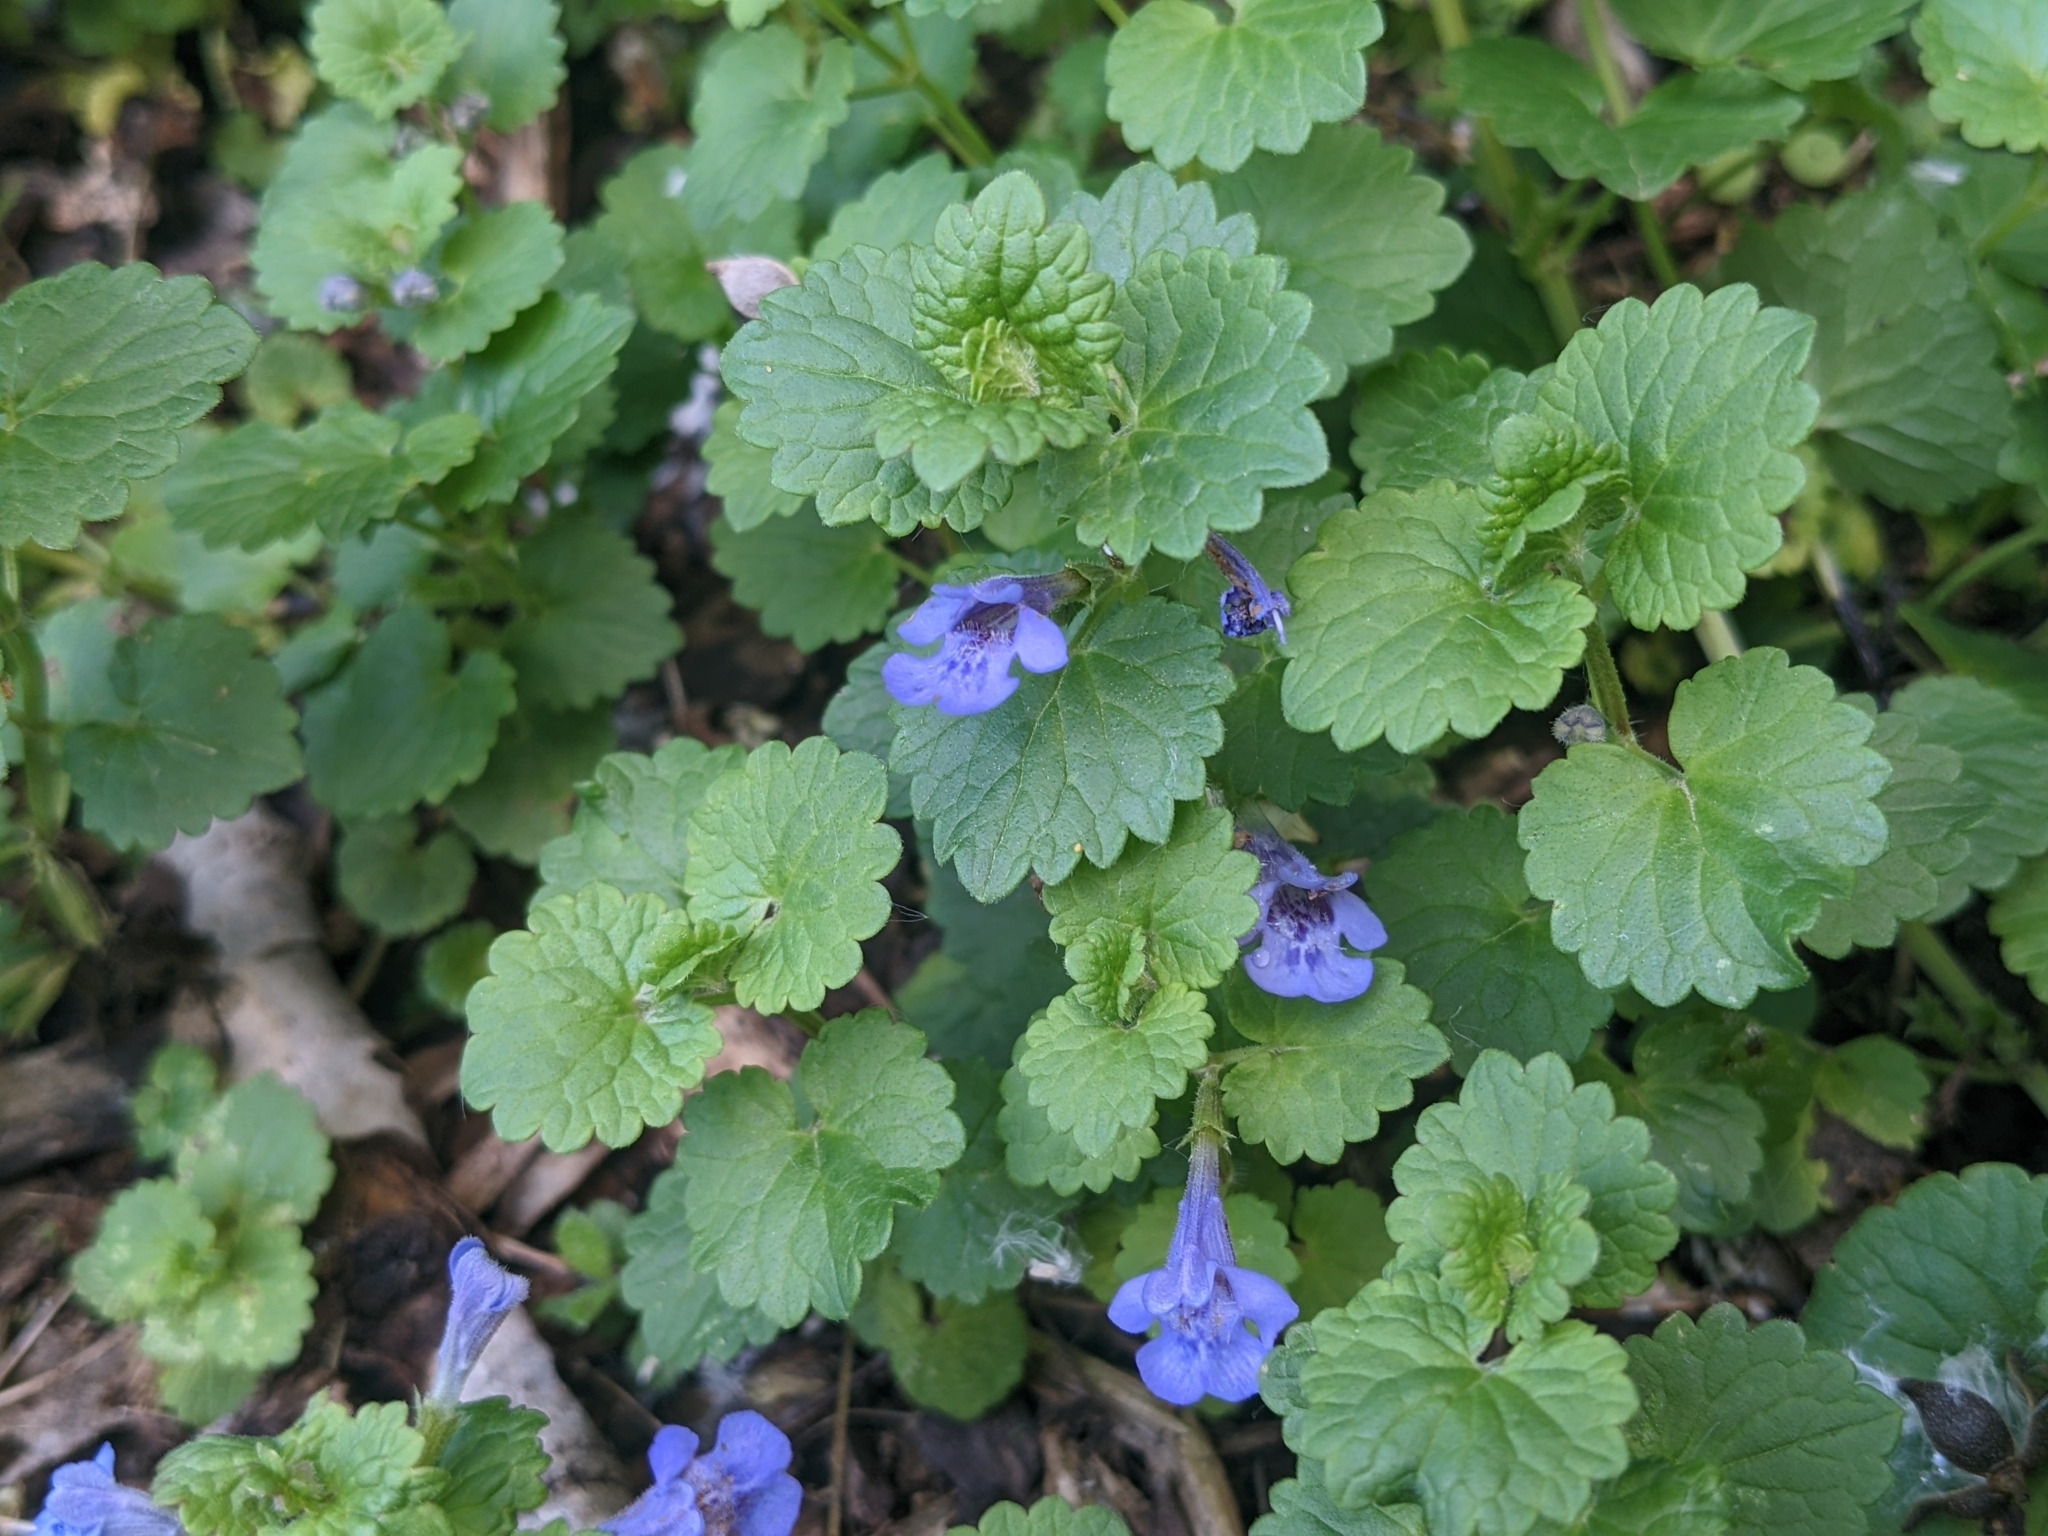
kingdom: Plantae
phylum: Tracheophyta
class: Magnoliopsida
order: Lamiales
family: Lamiaceae
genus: Glechoma
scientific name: Glechoma hederacea
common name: Ground ivy
